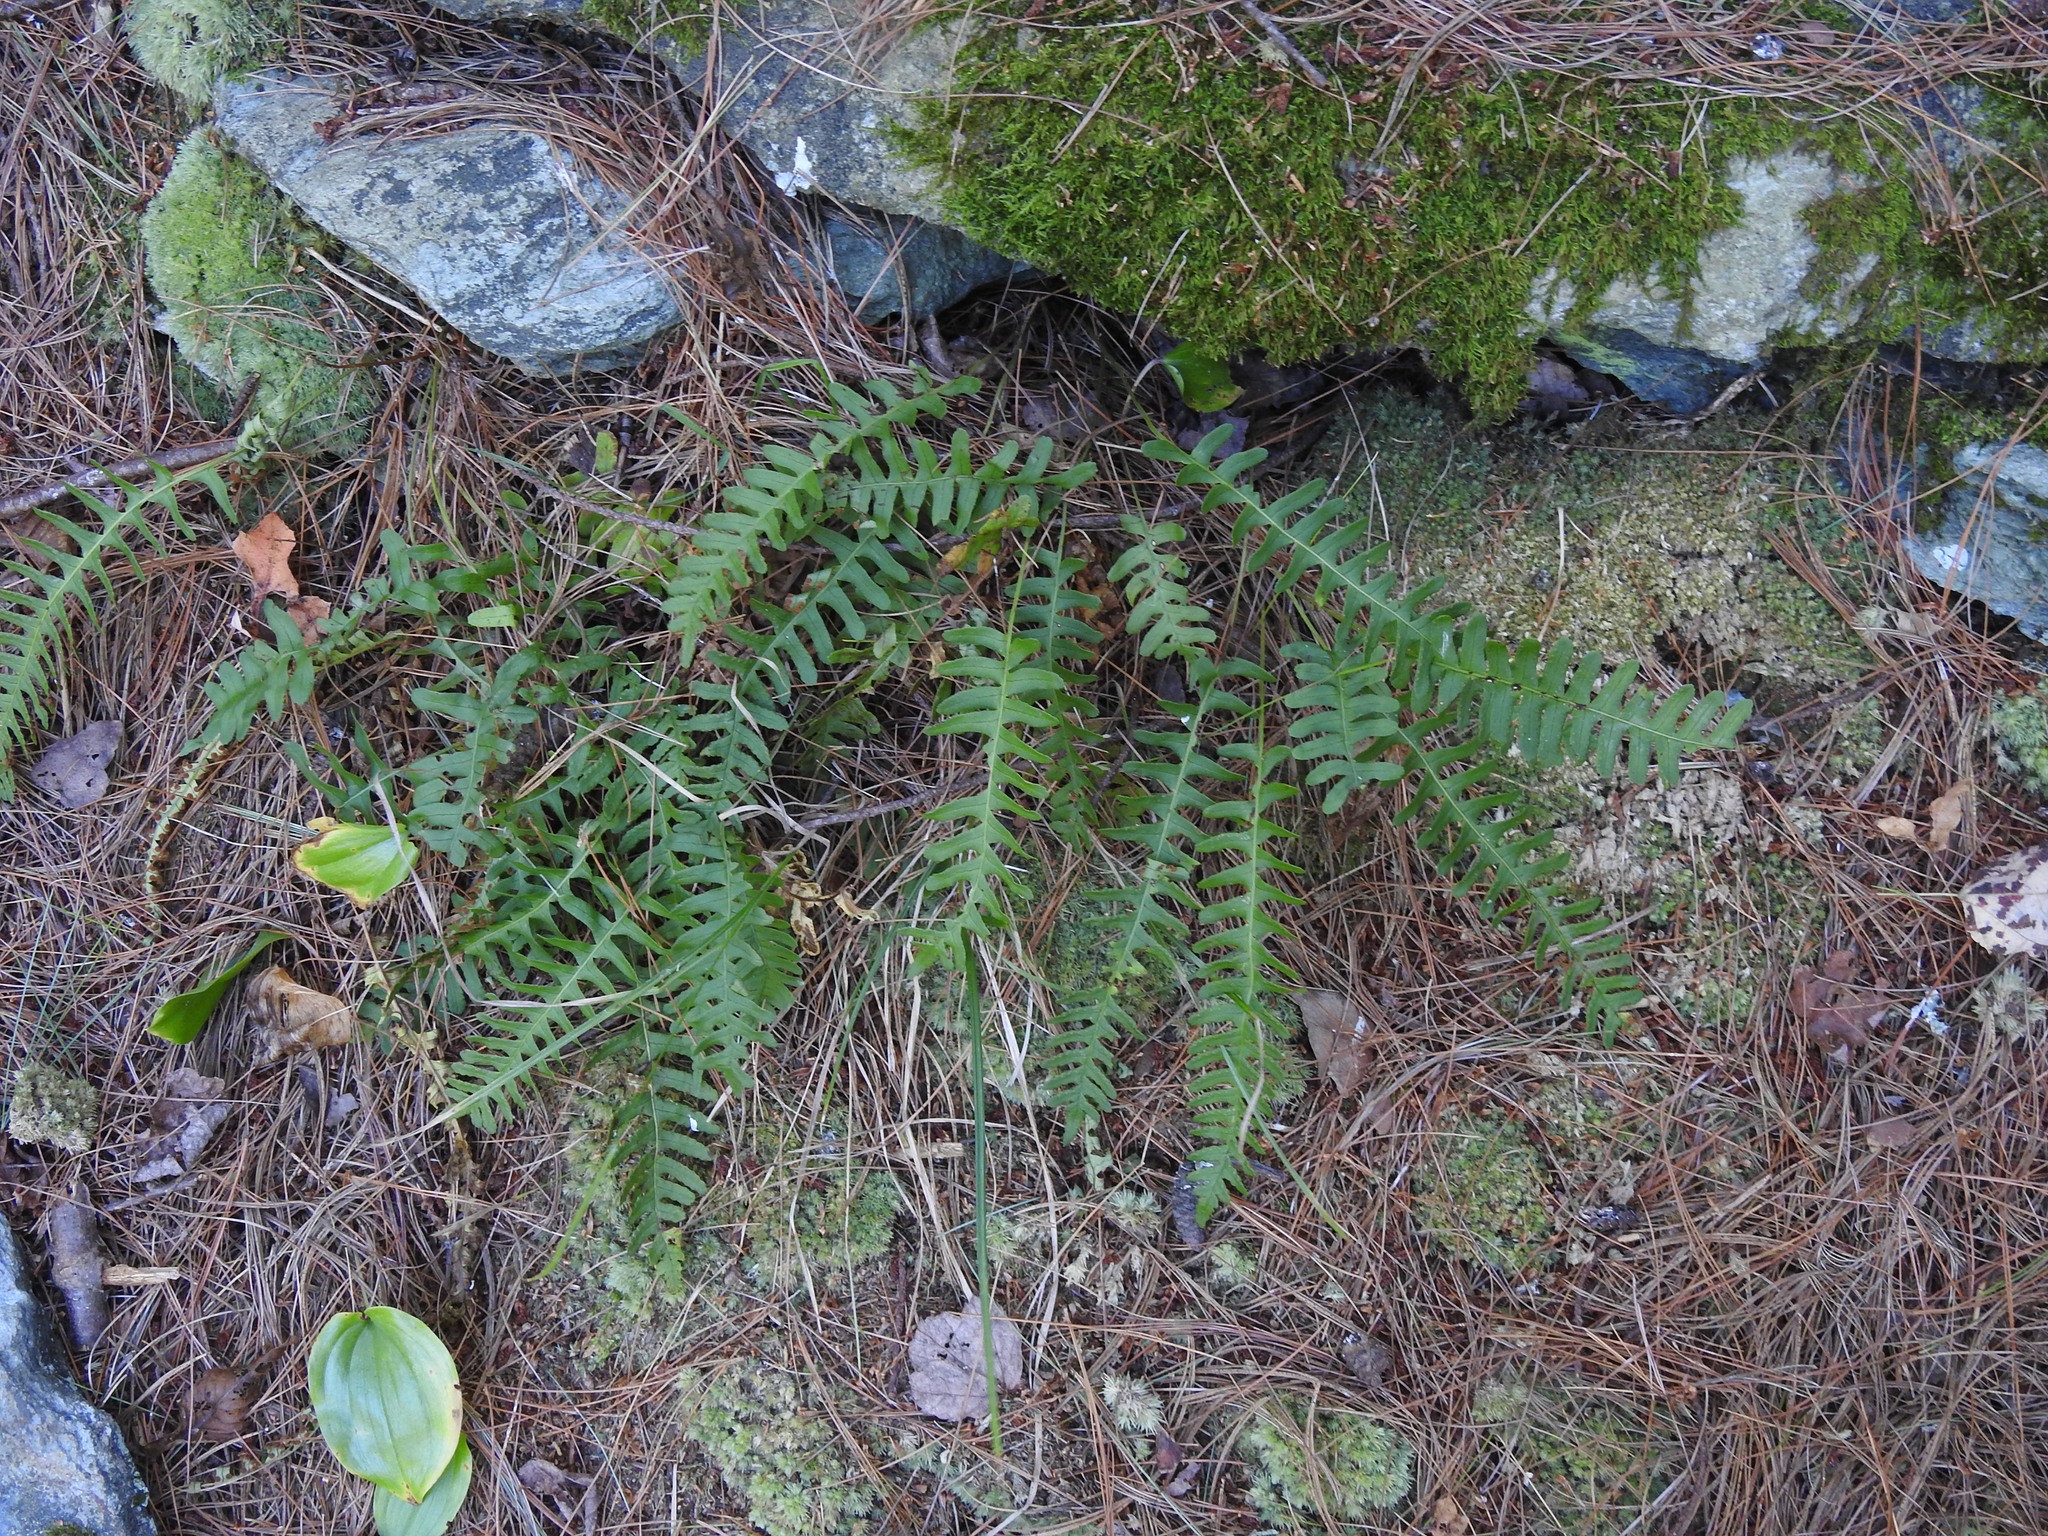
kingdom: Plantae
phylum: Tracheophyta
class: Polypodiopsida
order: Polypodiales
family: Polypodiaceae
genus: Polypodium
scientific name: Polypodium virginianum
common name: American wall fern
